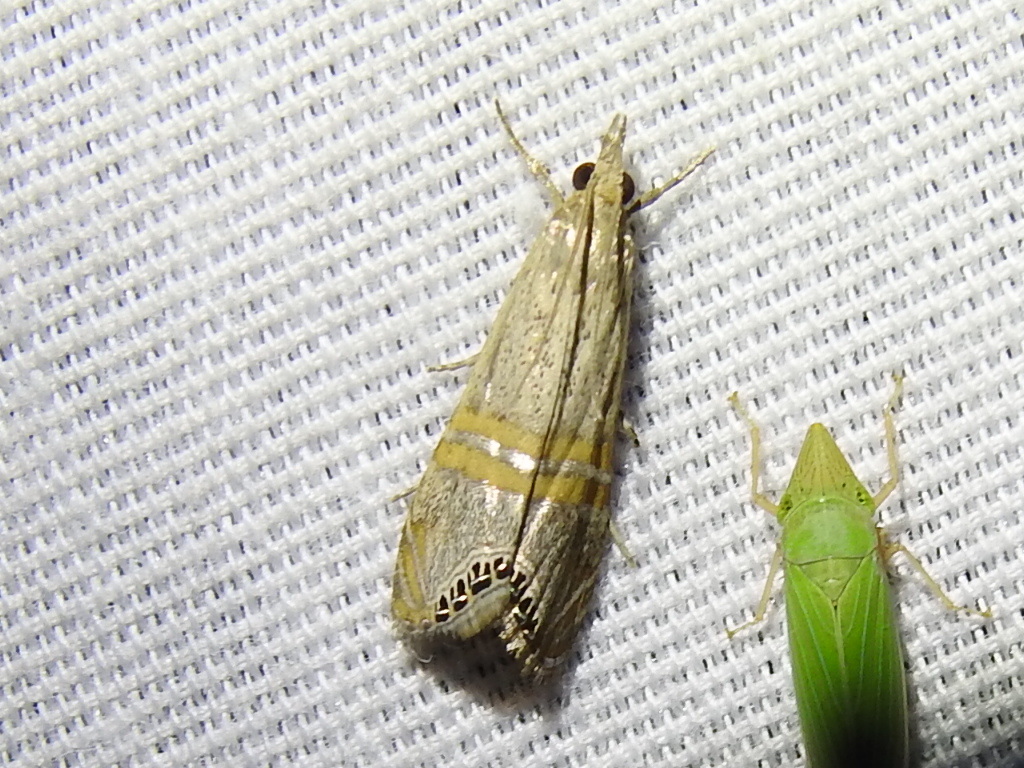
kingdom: Animalia
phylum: Arthropoda
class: Insecta
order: Lepidoptera
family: Crambidae
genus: Euchromius
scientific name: Euchromius ocellea
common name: Necklace veneer moth
